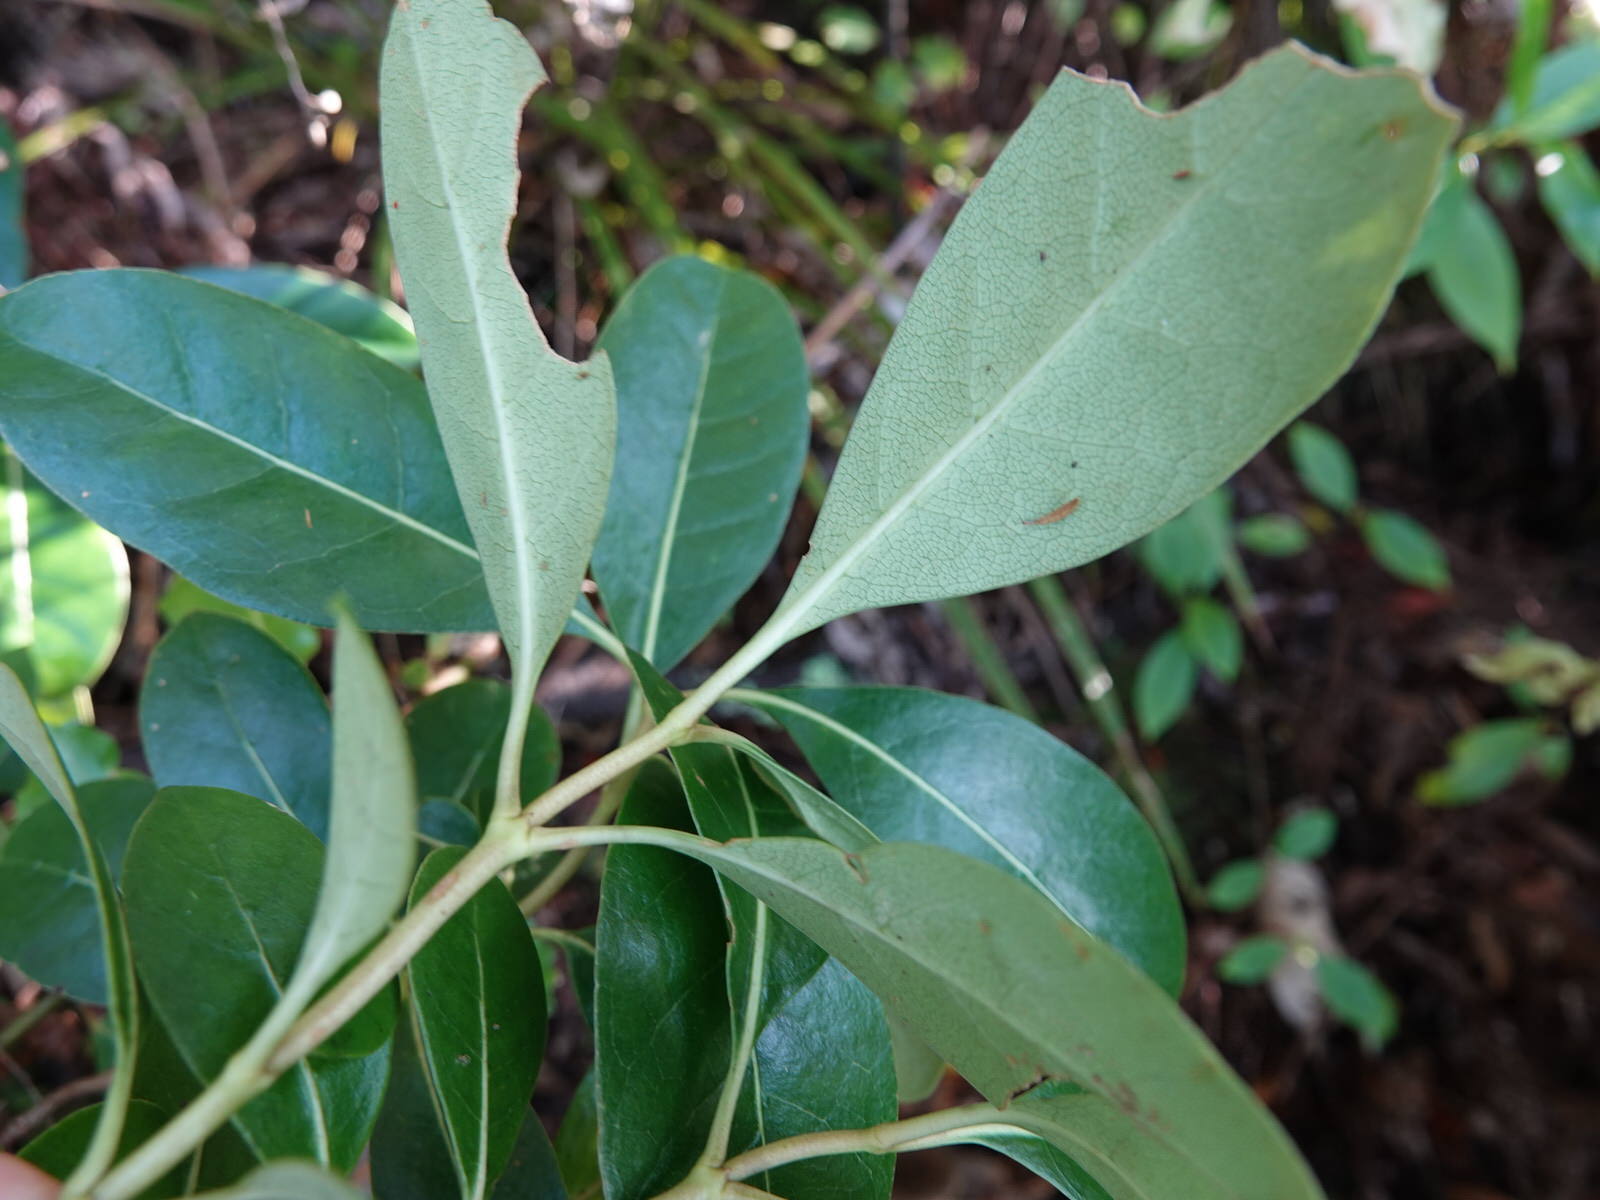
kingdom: Plantae
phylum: Tracheophyta
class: Magnoliopsida
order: Gentianales
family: Rubiaceae
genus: Coprosma
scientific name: Coprosma lucida
